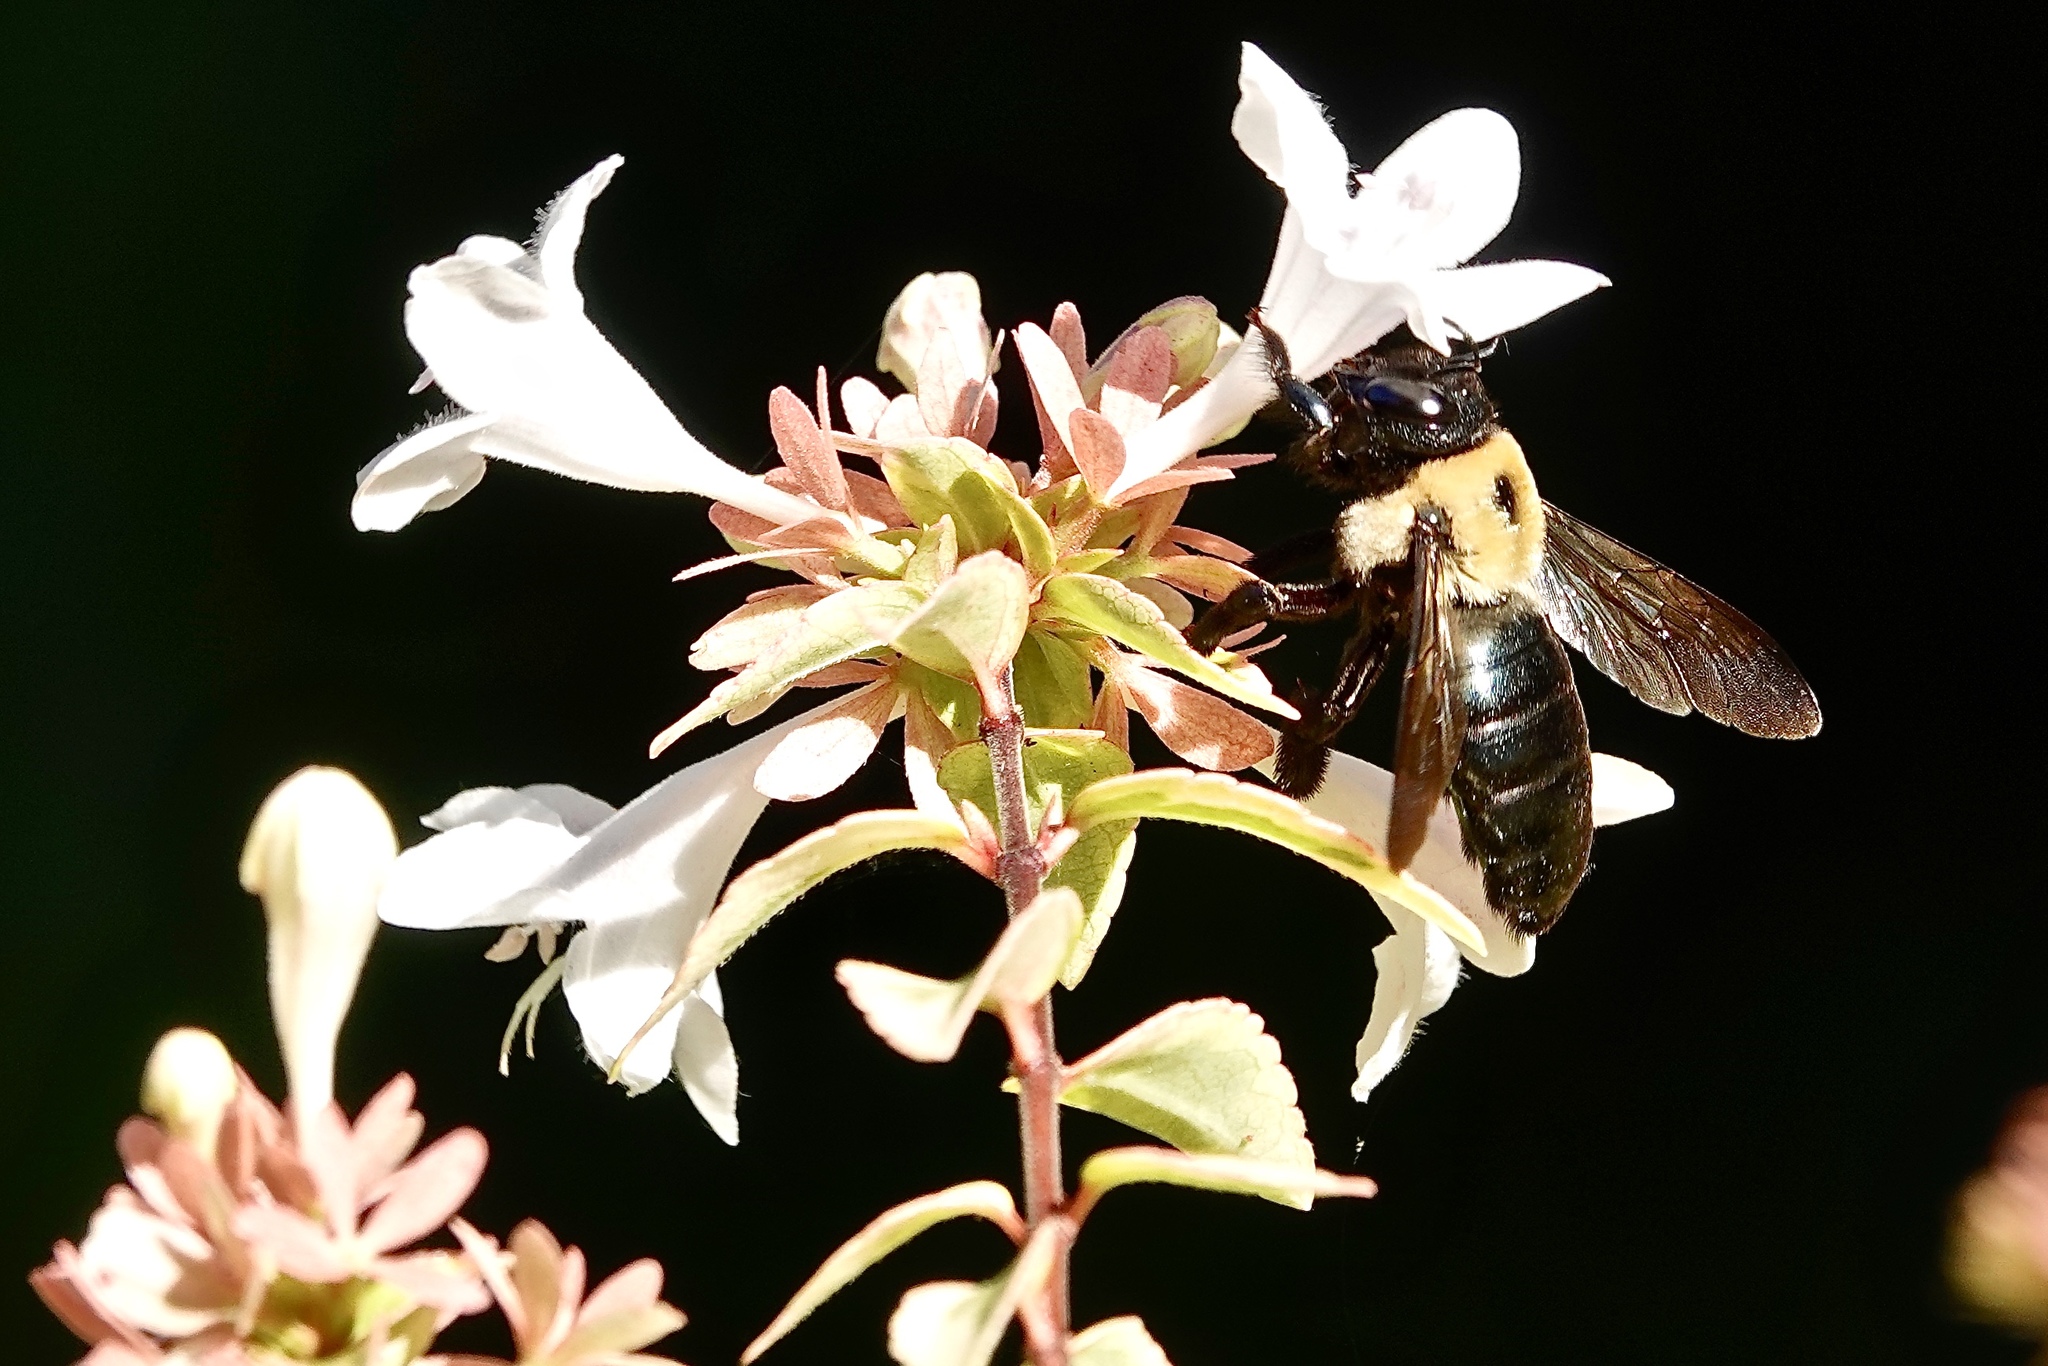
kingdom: Animalia
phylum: Arthropoda
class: Insecta
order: Hymenoptera
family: Apidae
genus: Xylocopa
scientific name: Xylocopa virginica
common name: Carpenter bee
